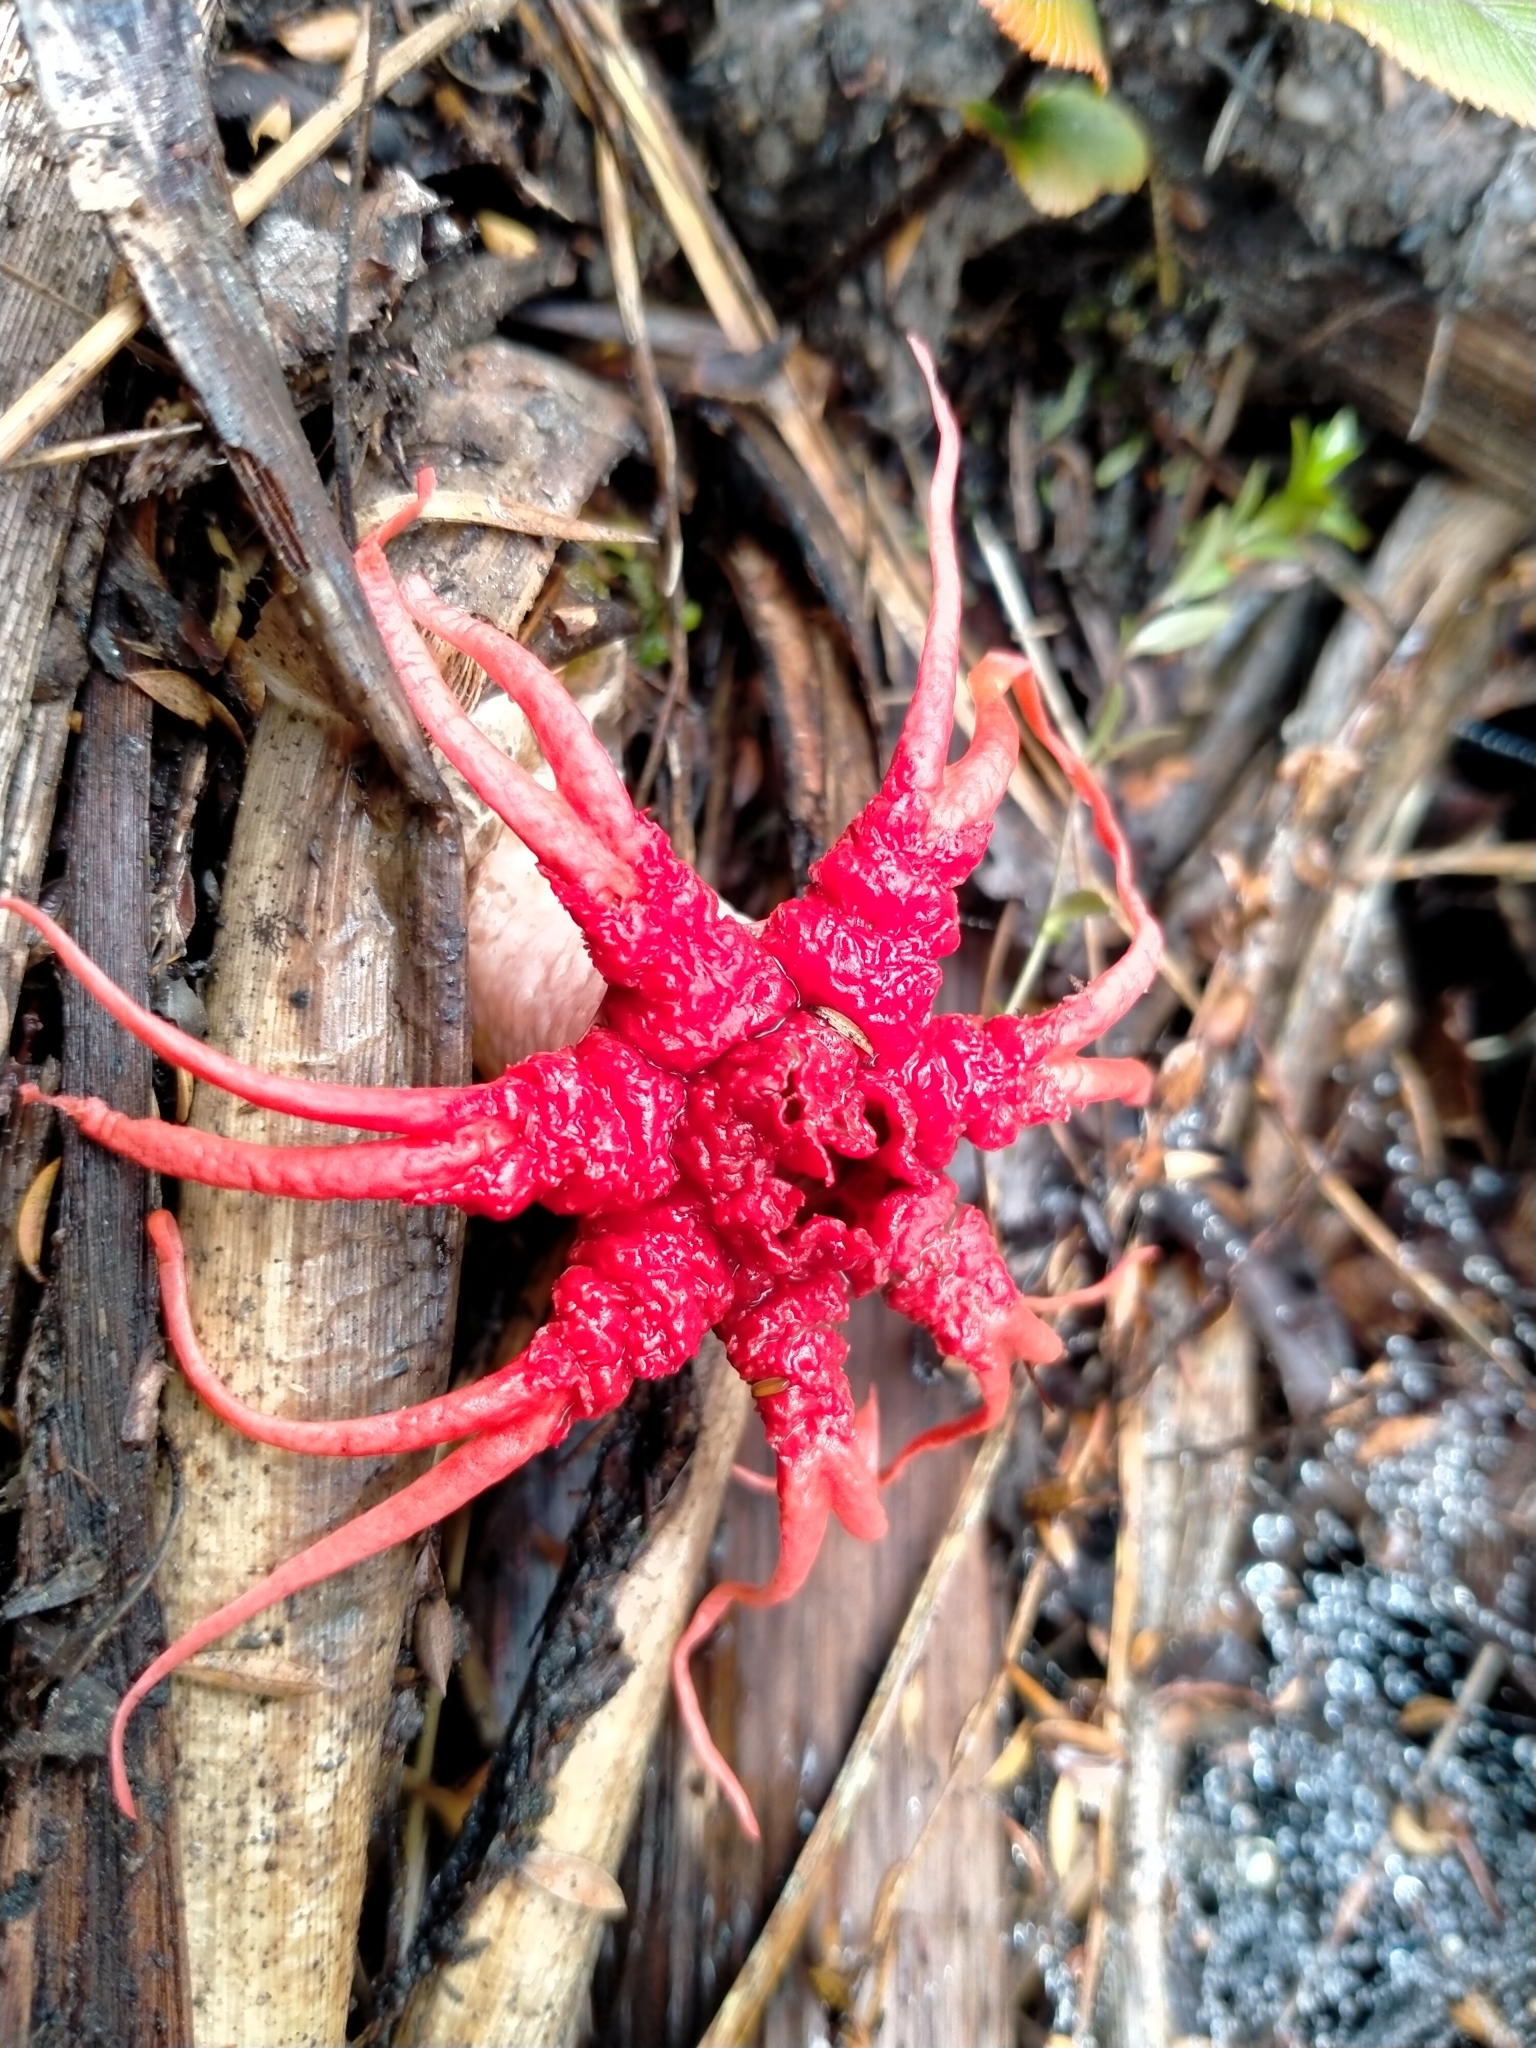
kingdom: Fungi
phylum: Basidiomycota
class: Agaricomycetes
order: Phallales
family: Phallaceae
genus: Aseroe
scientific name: Aseroe rubra
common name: Starfish fungus
